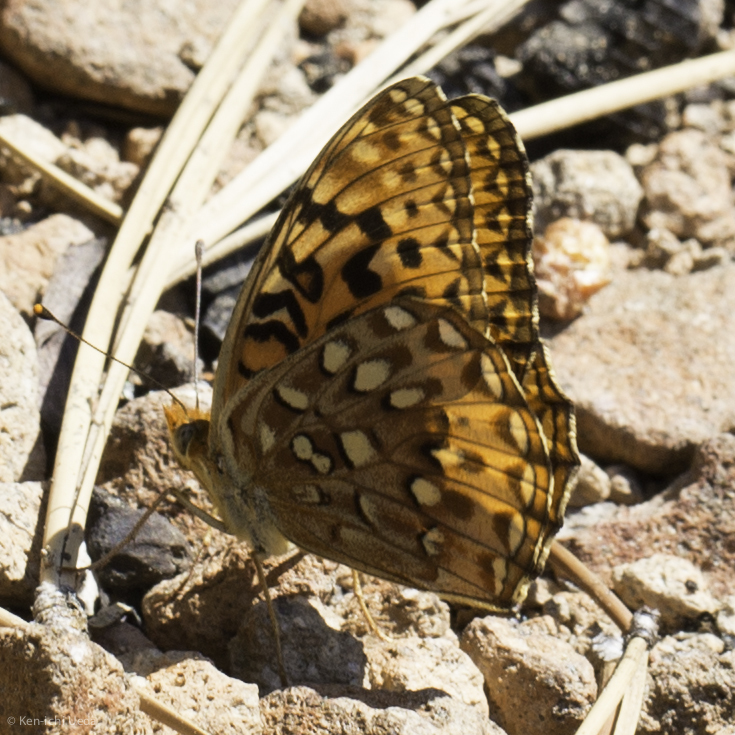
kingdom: Animalia
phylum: Arthropoda
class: Insecta
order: Lepidoptera
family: Nymphalidae
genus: Speyeria
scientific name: Speyeria zerene
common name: Zerene fritillary
